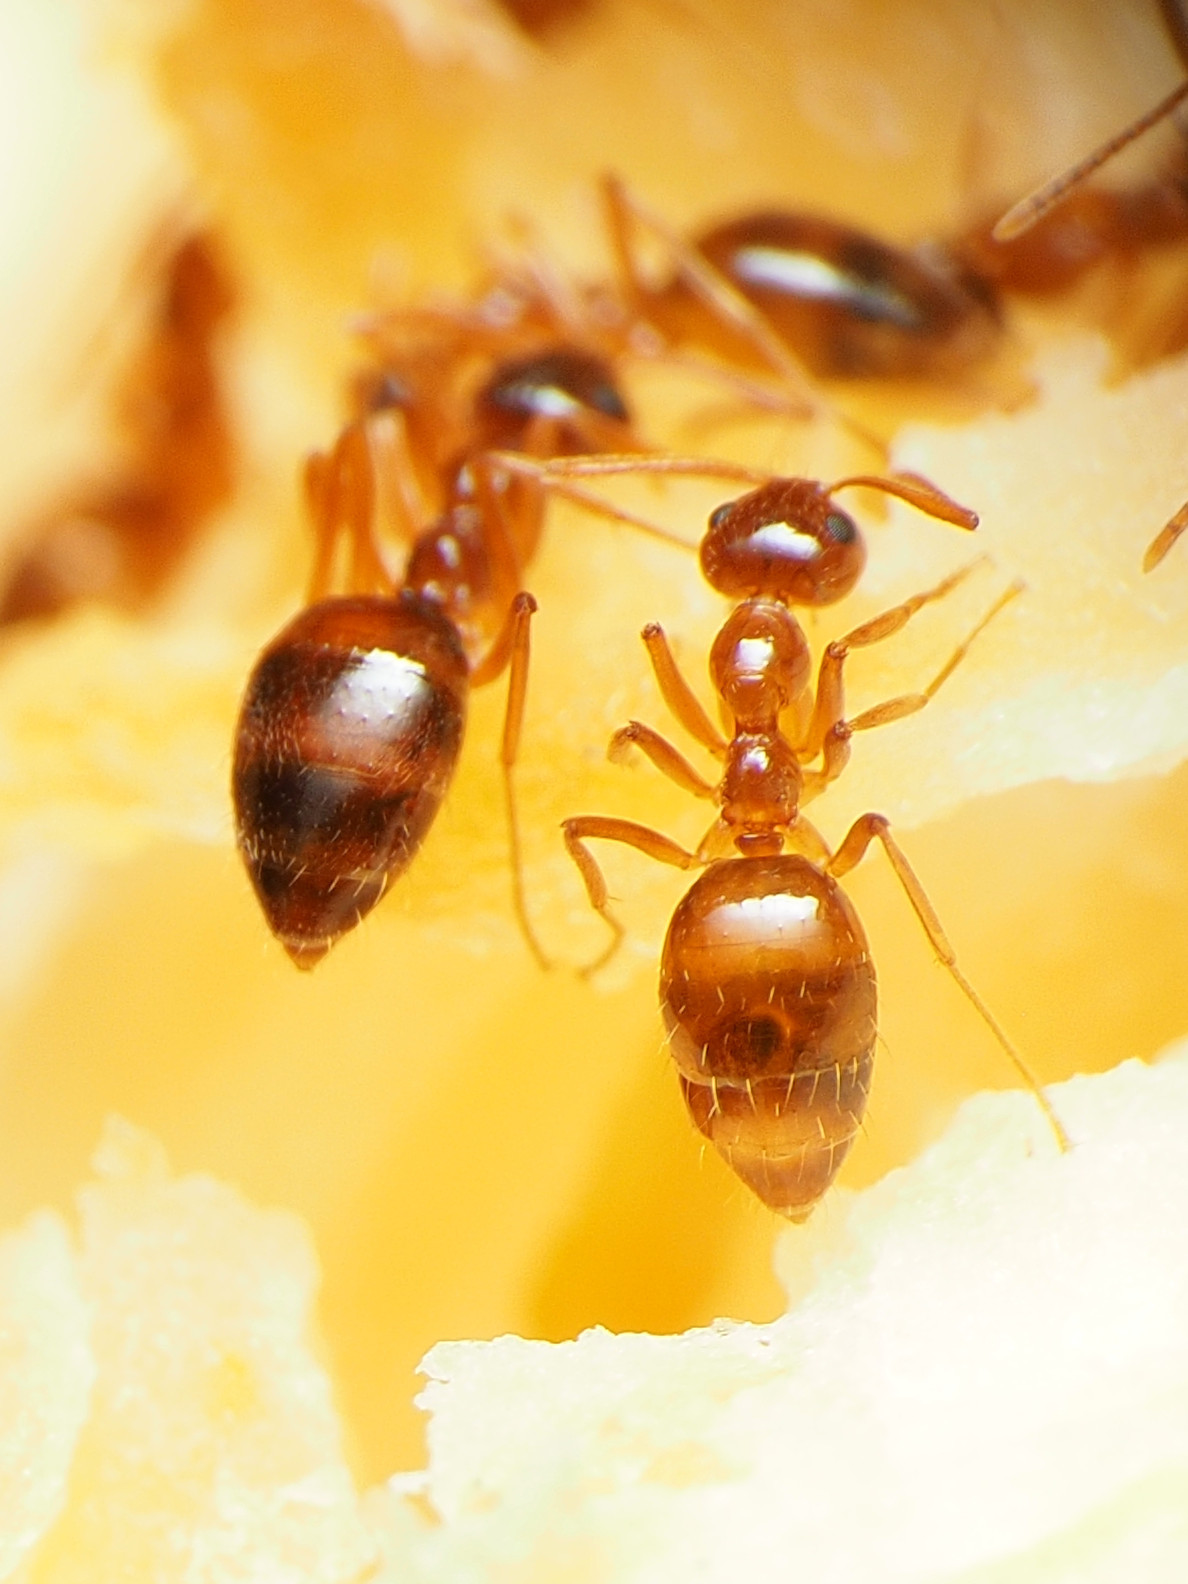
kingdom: Animalia
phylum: Arthropoda
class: Insecta
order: Hymenoptera
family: Formicidae
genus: Prenolepis
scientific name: Prenolepis imparis
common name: Small honey ant
